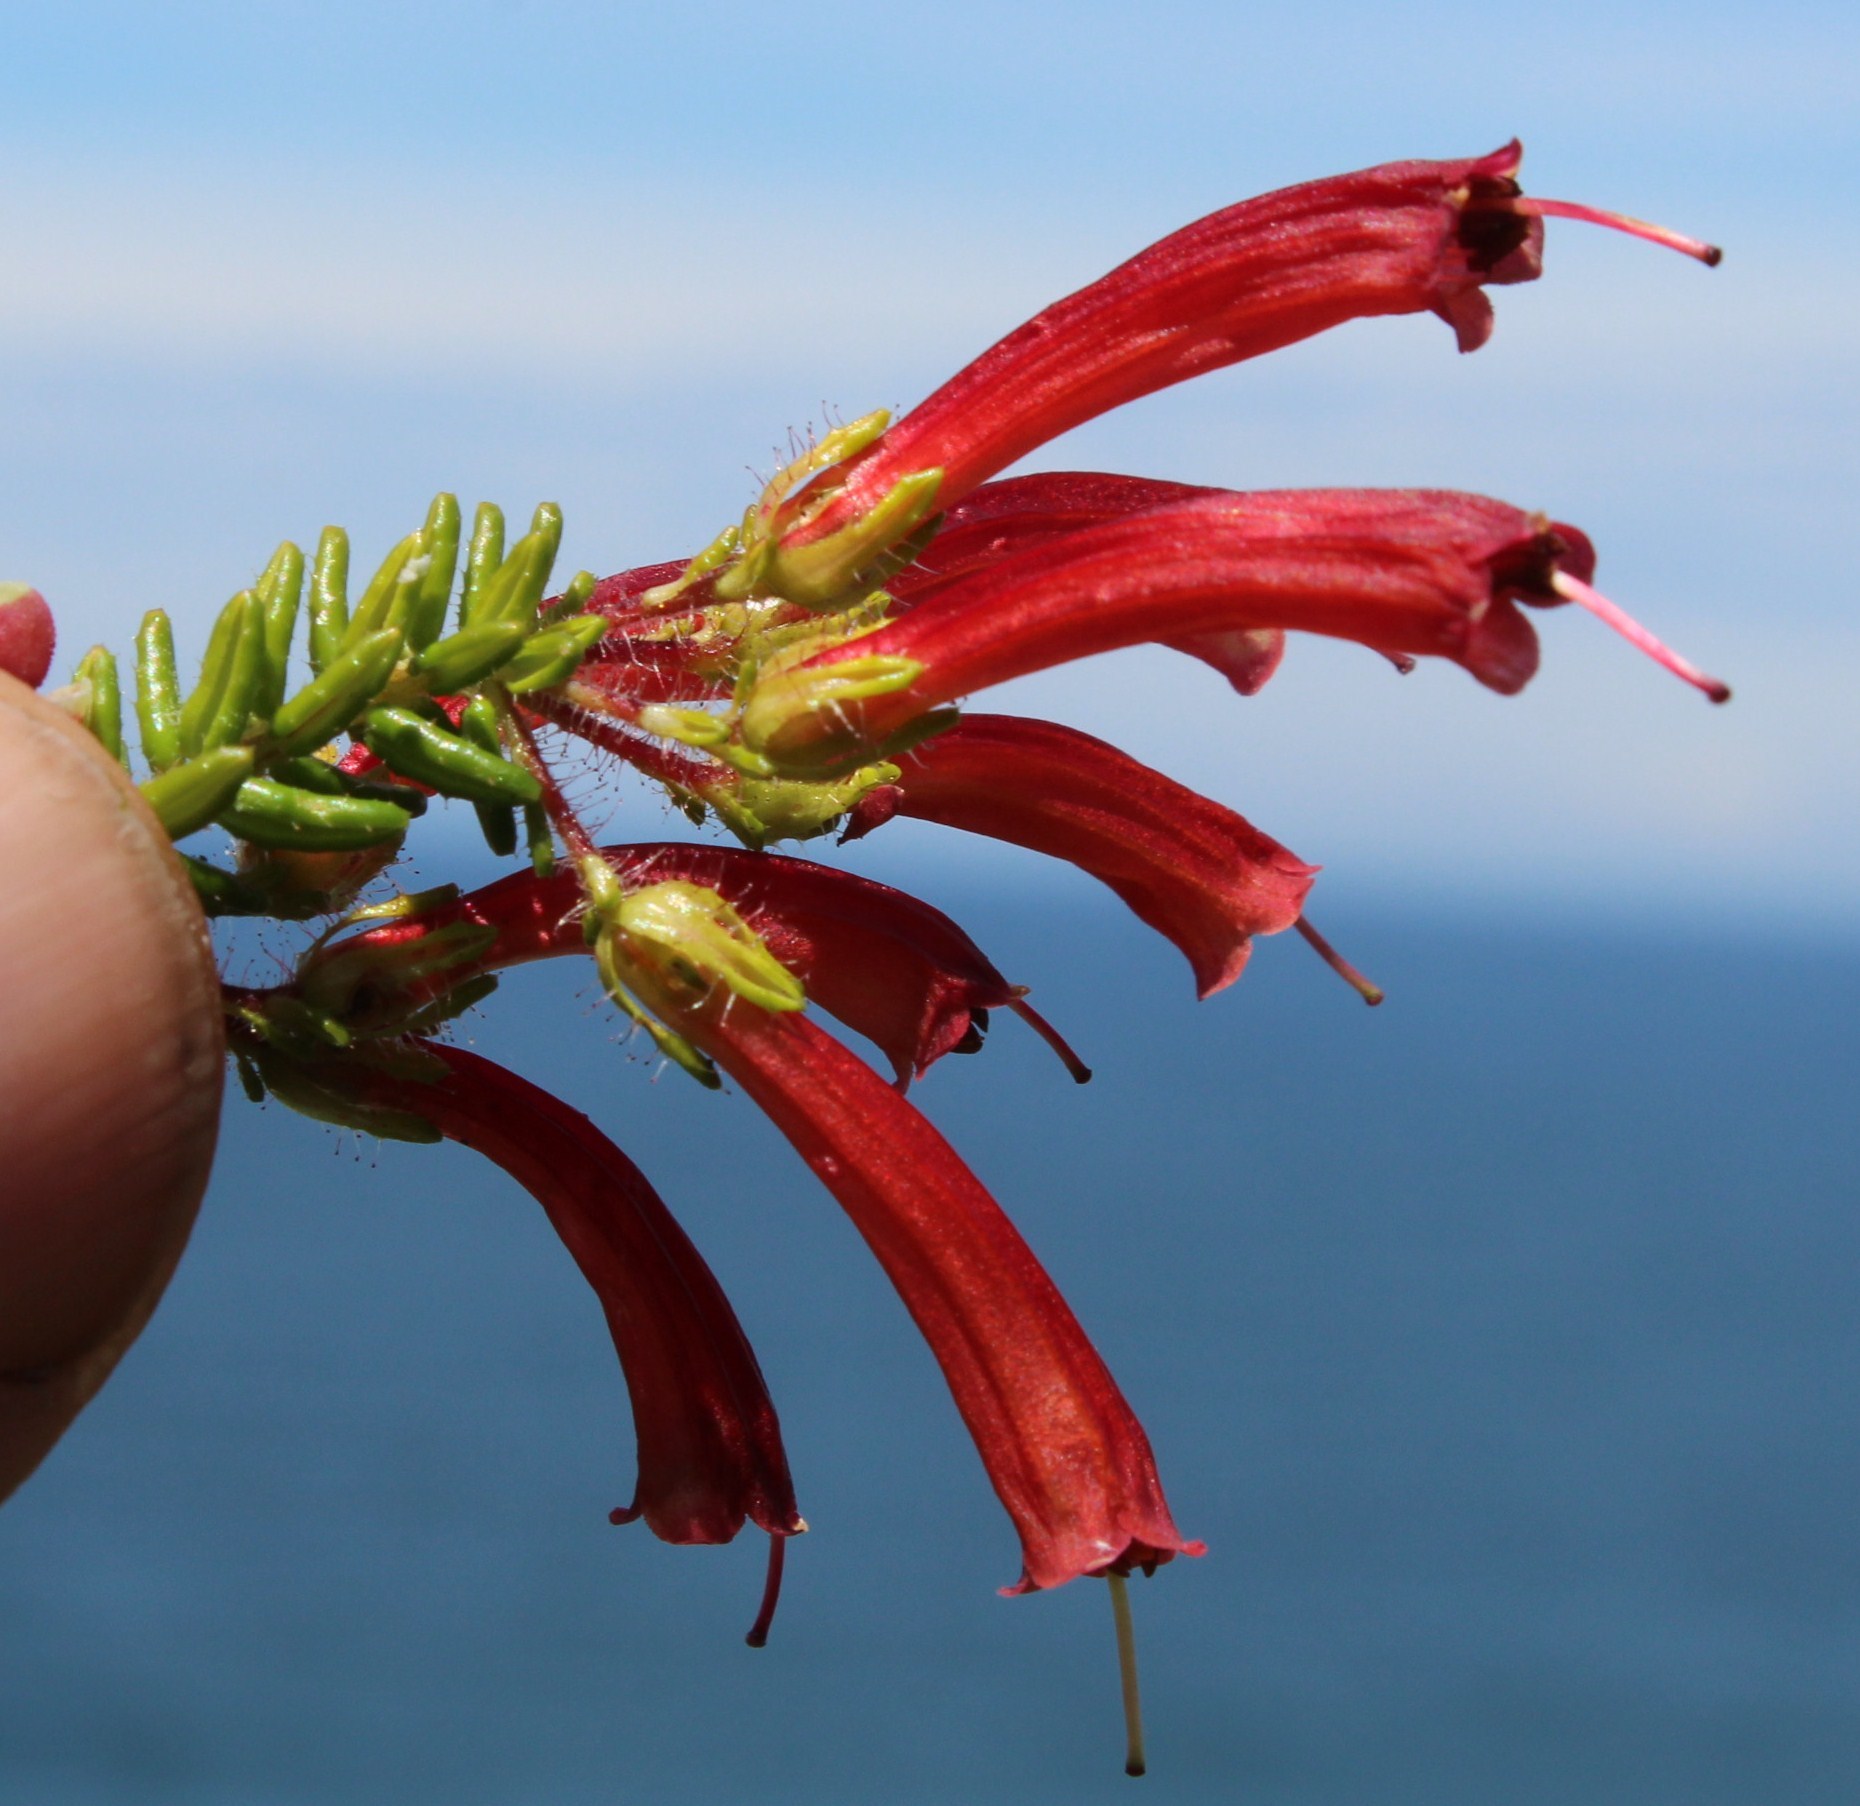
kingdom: Plantae
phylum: Tracheophyta
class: Magnoliopsida
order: Ericales
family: Ericaceae
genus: Erica
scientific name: Erica glandulosa
